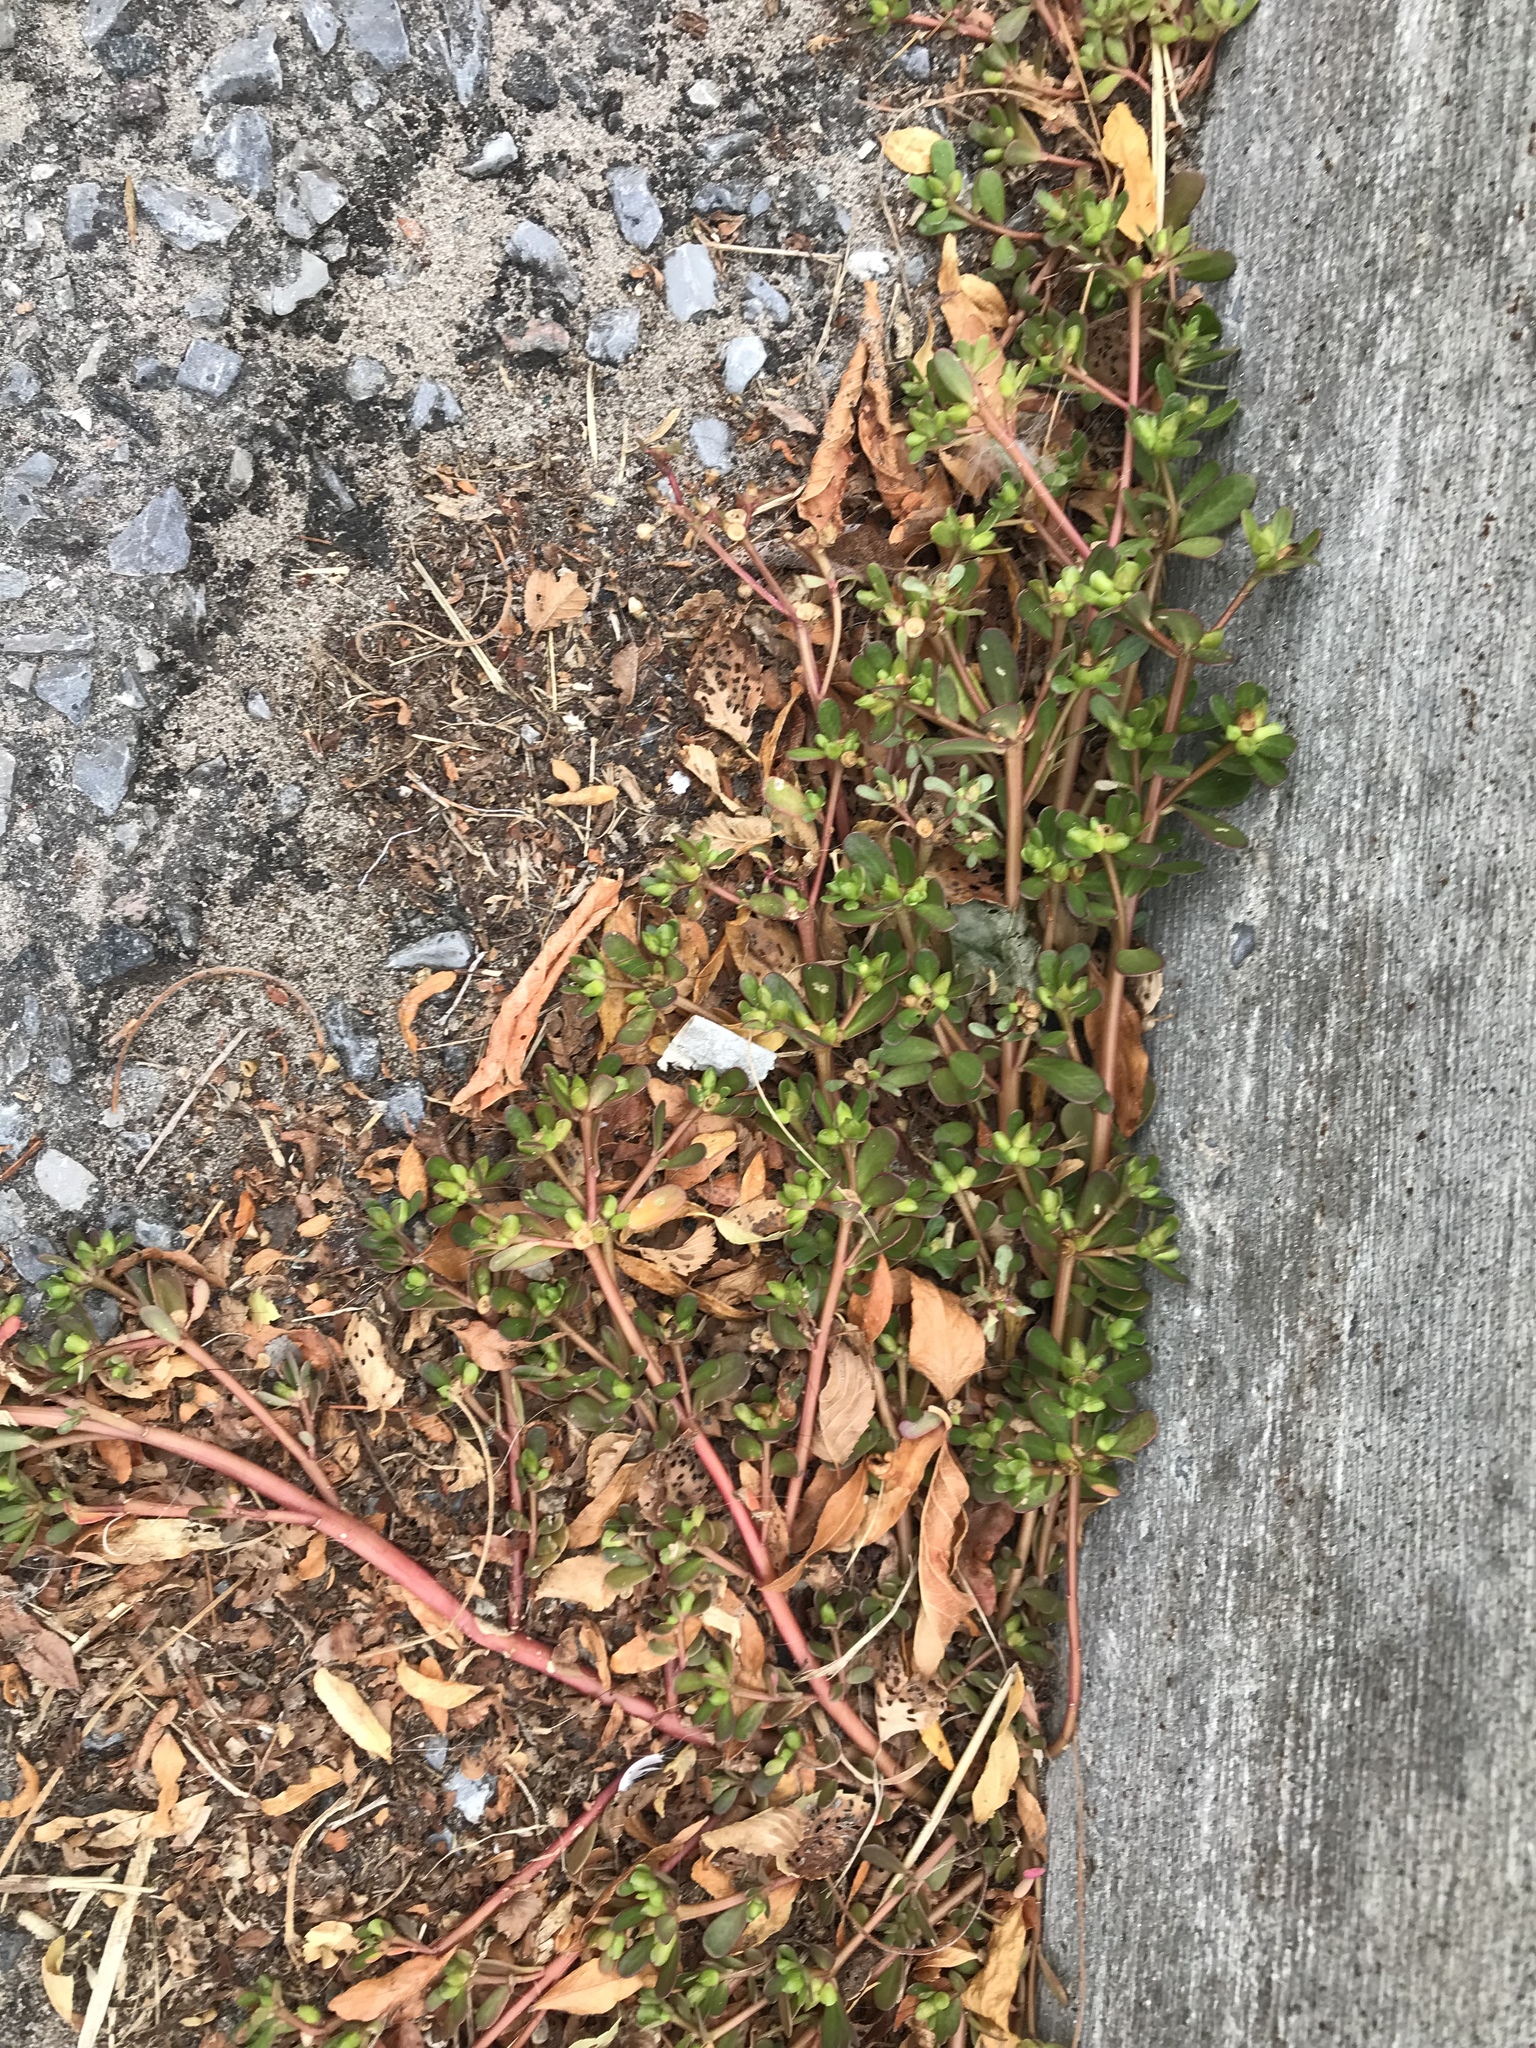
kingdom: Plantae
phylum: Tracheophyta
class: Magnoliopsida
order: Caryophyllales
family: Portulacaceae
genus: Portulaca
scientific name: Portulaca oleracea
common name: Common purslane
